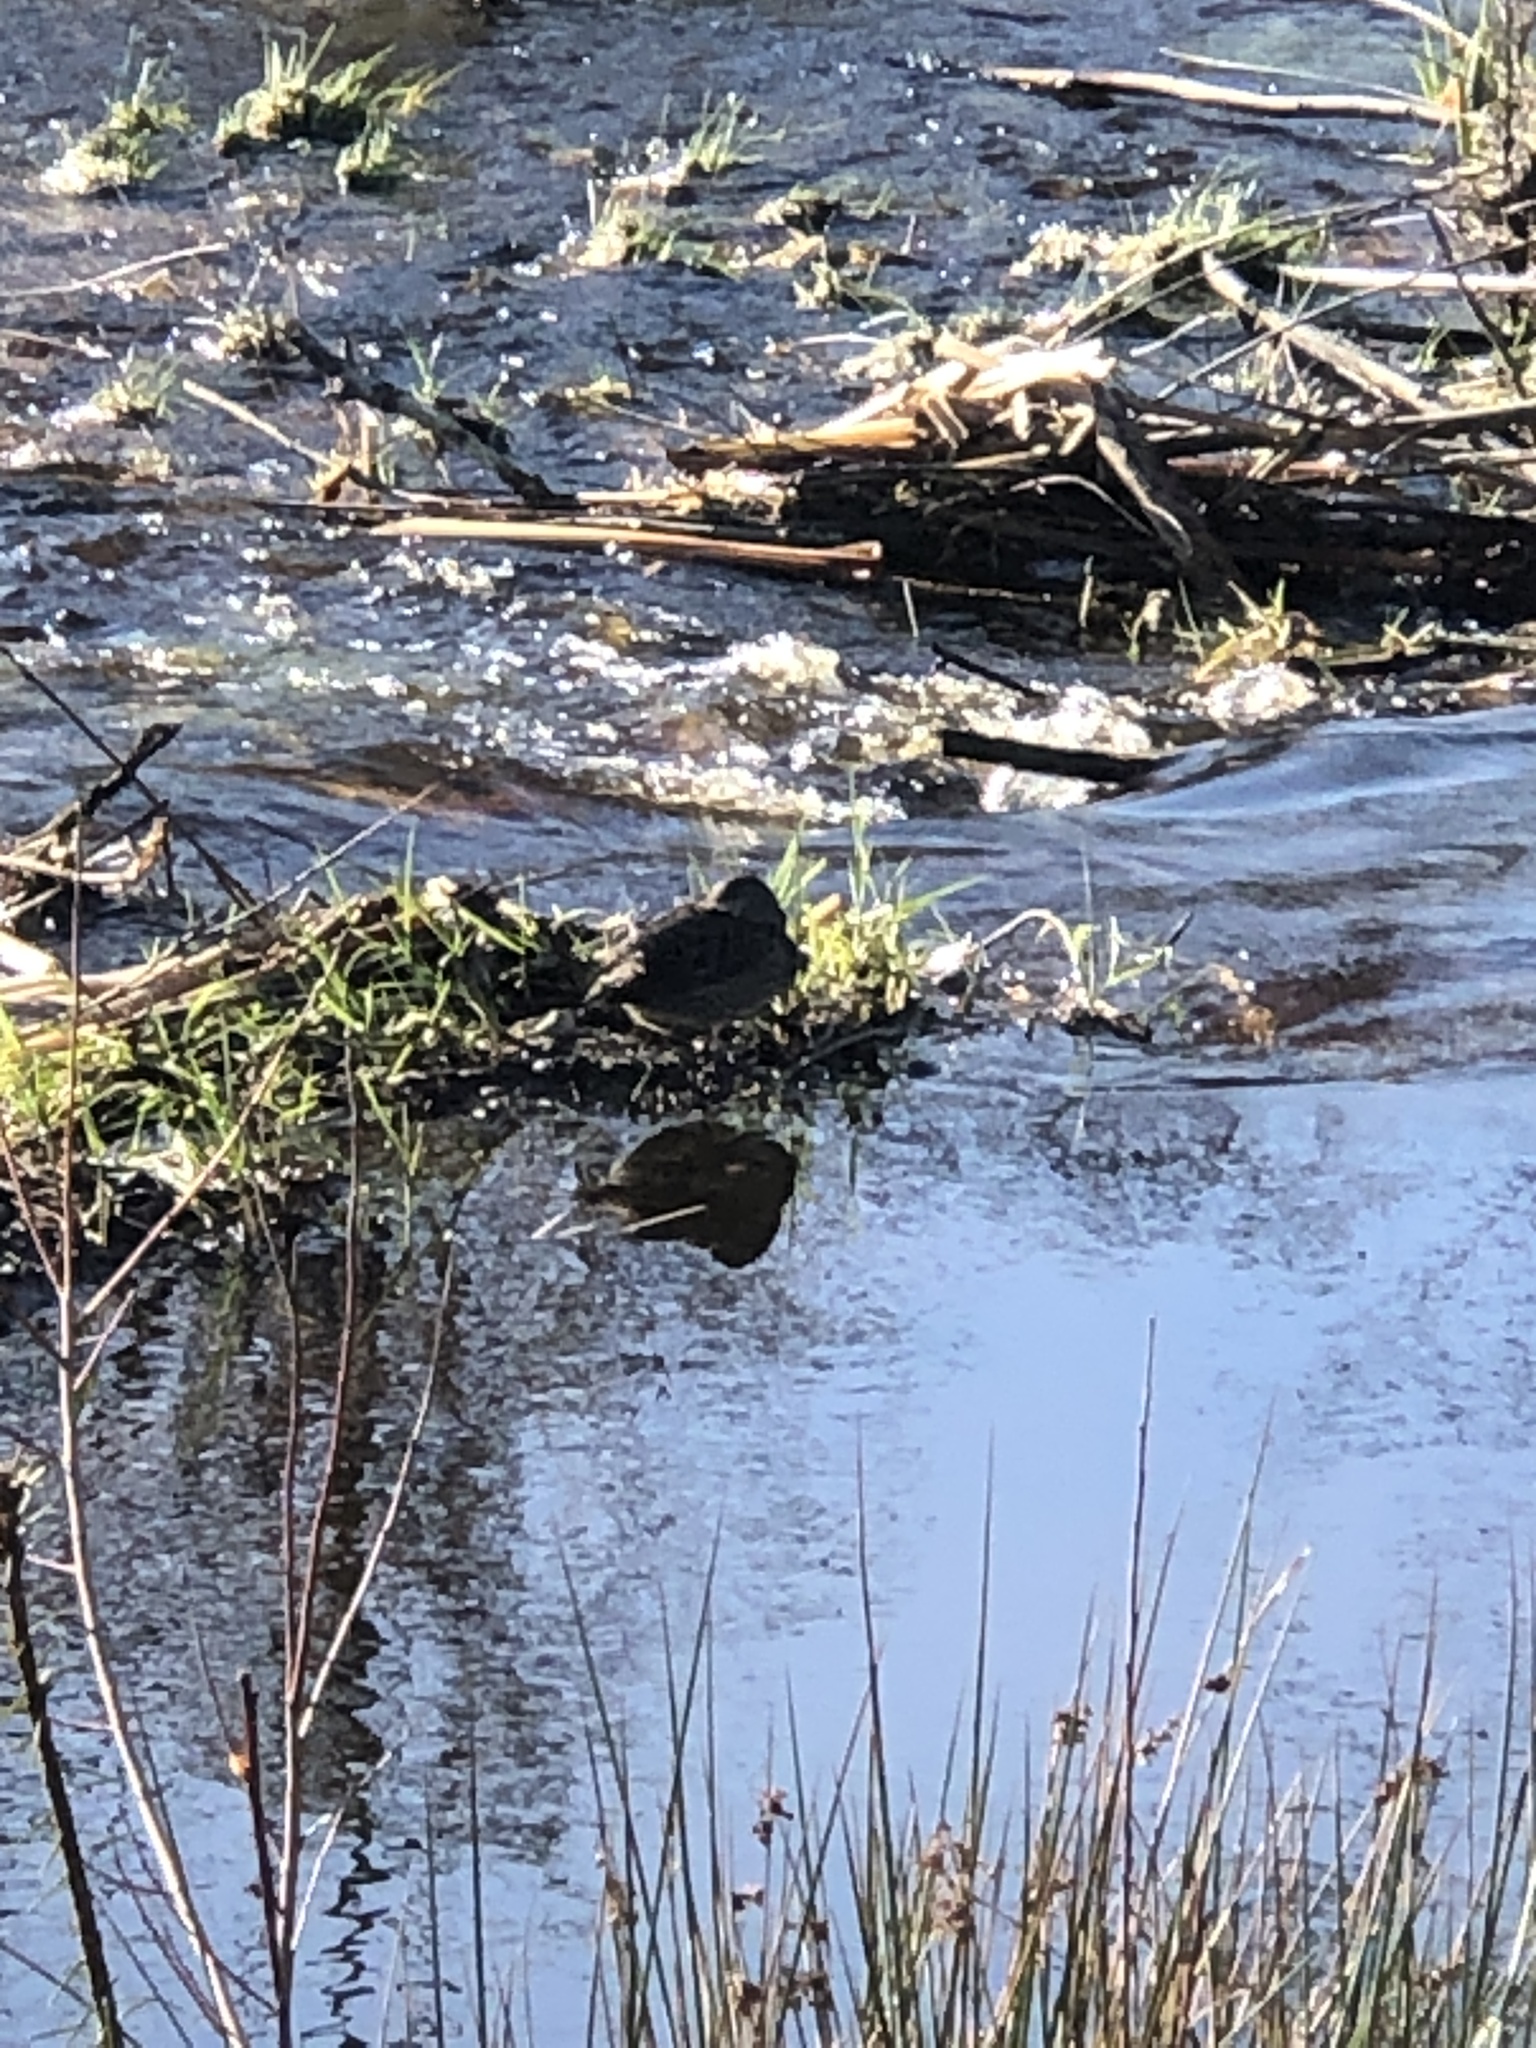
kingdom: Animalia
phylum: Chordata
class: Aves
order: Anseriformes
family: Anatidae
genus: Anas
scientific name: Anas platyrhynchos
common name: Mallard
